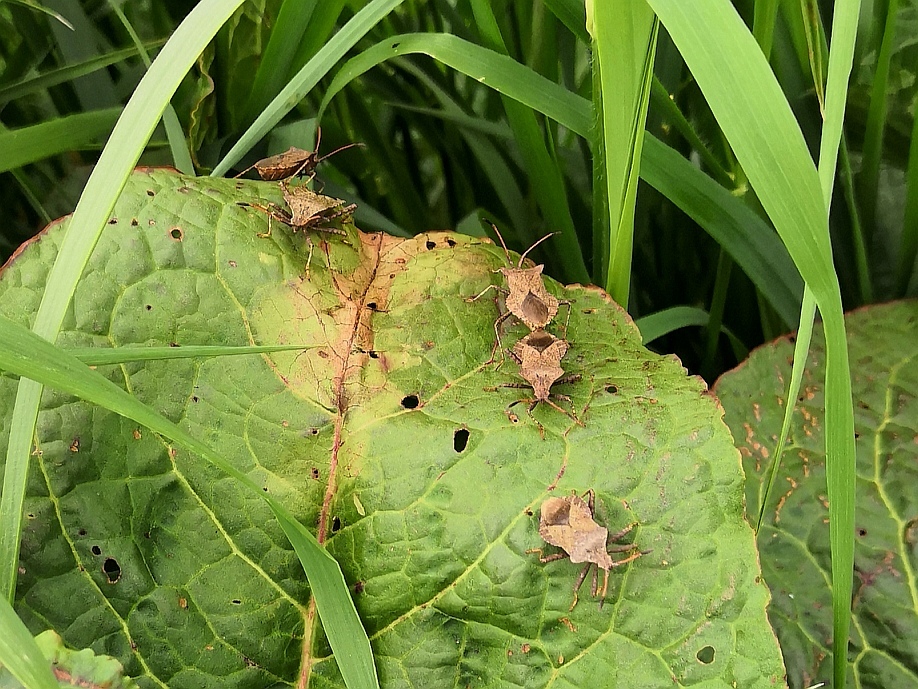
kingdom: Animalia
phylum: Arthropoda
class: Insecta
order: Hemiptera
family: Coreidae
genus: Coreus
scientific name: Coreus marginatus
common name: Dock bug
